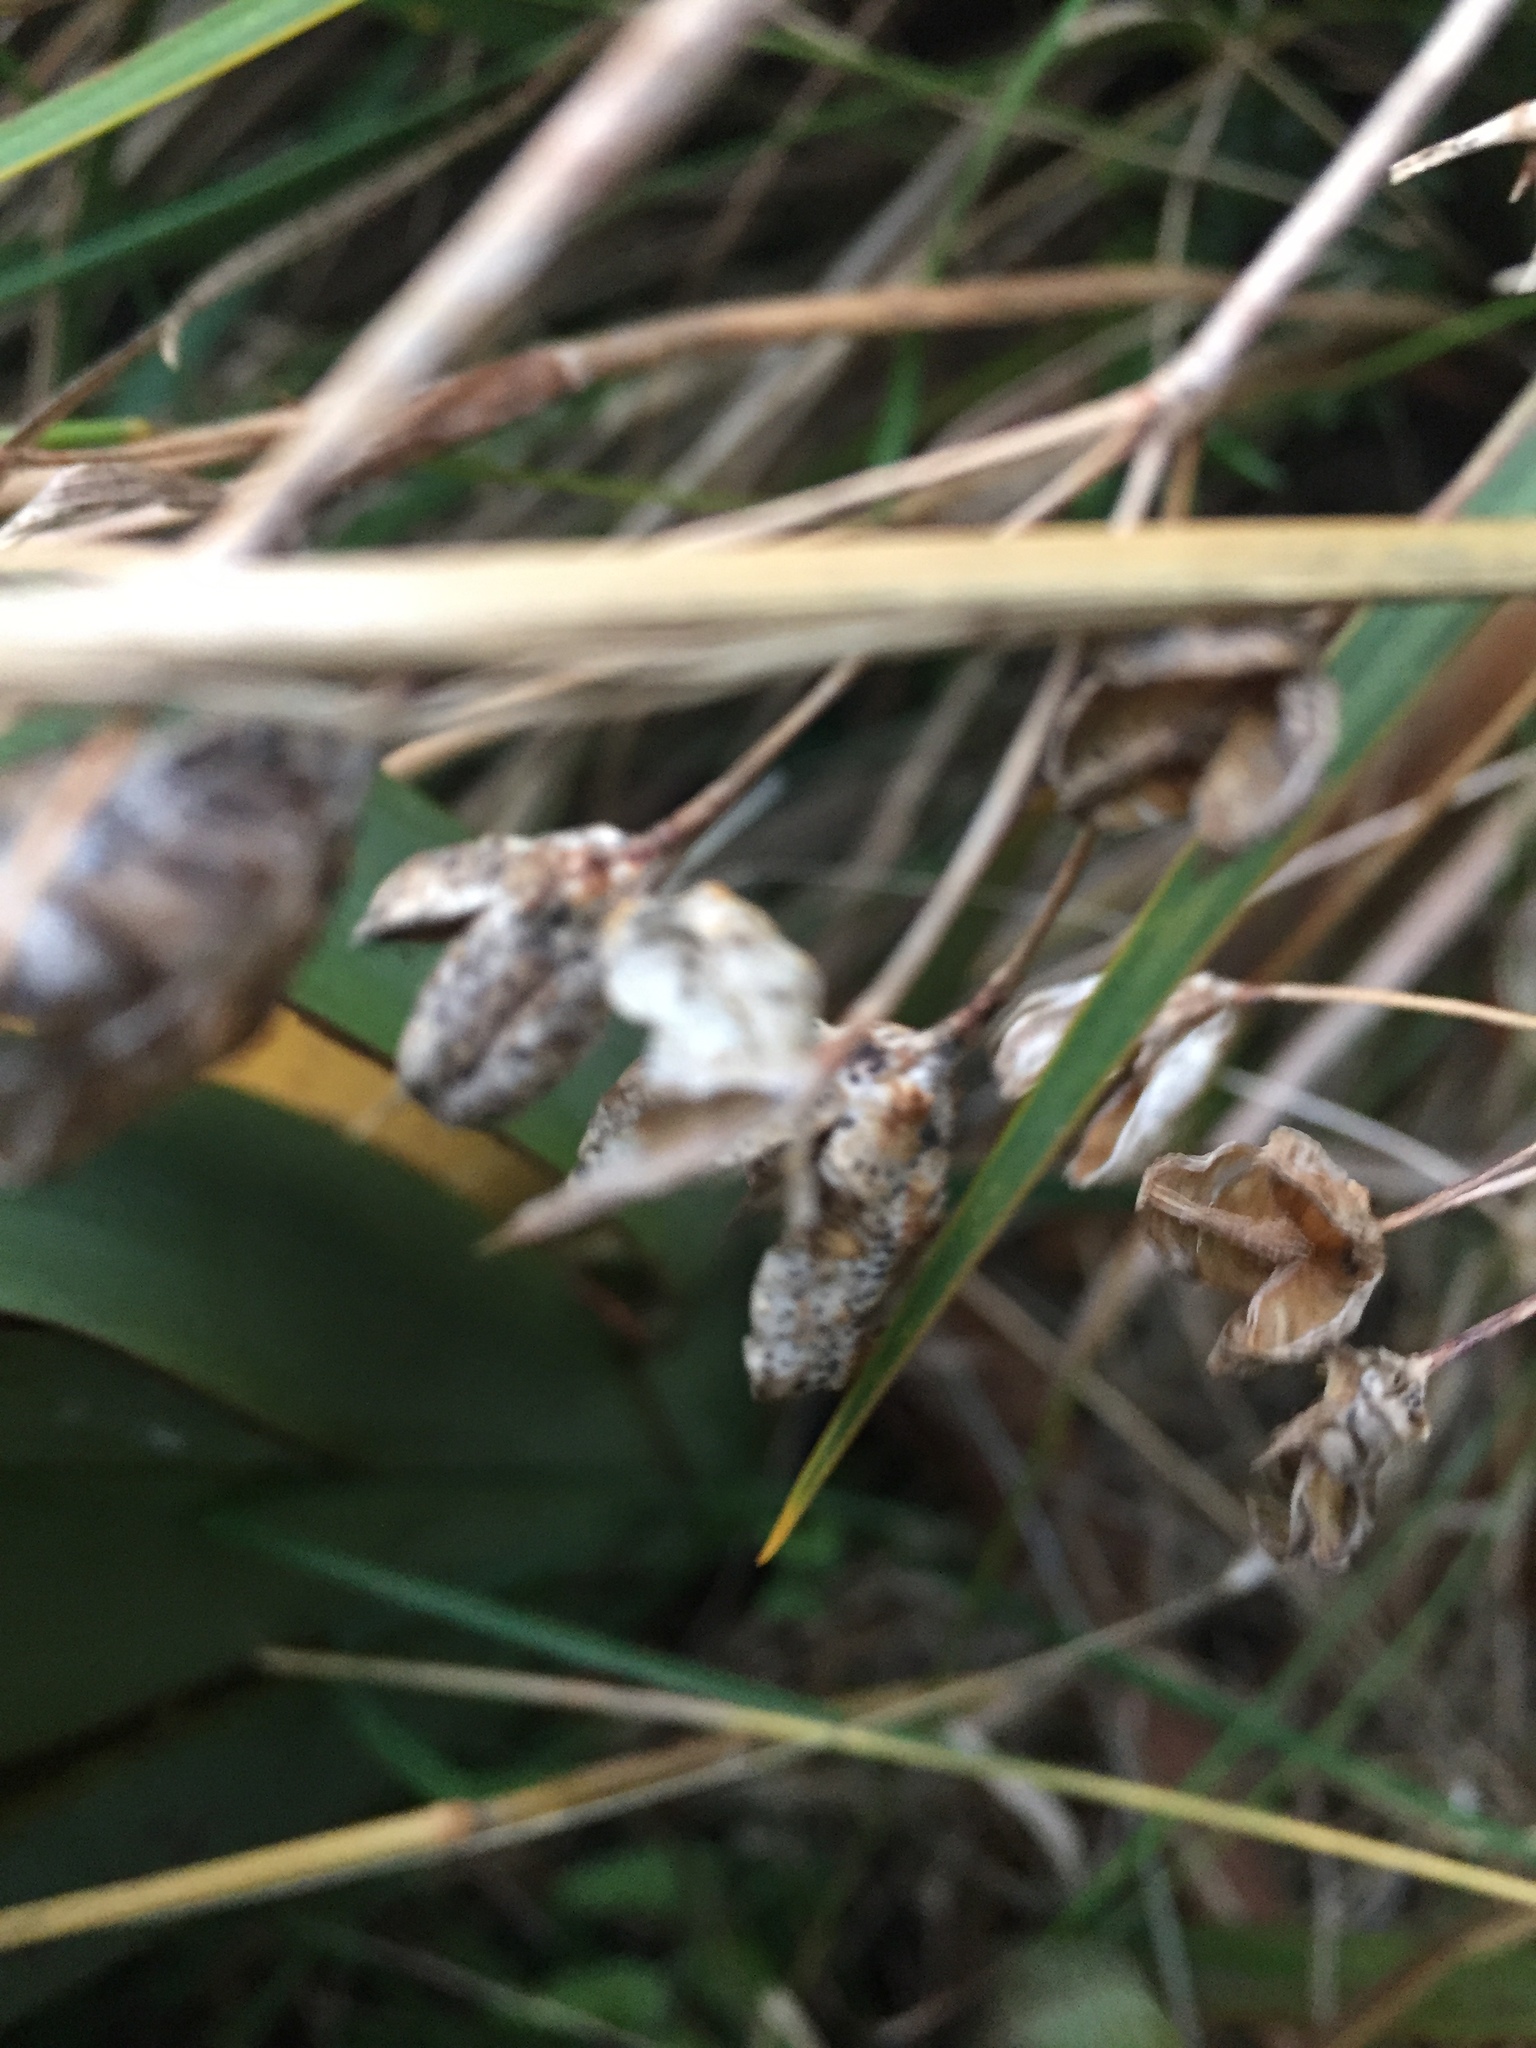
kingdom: Plantae
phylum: Tracheophyta
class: Liliopsida
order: Asparagales
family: Iridaceae
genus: Libertia
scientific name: Libertia ixioides
